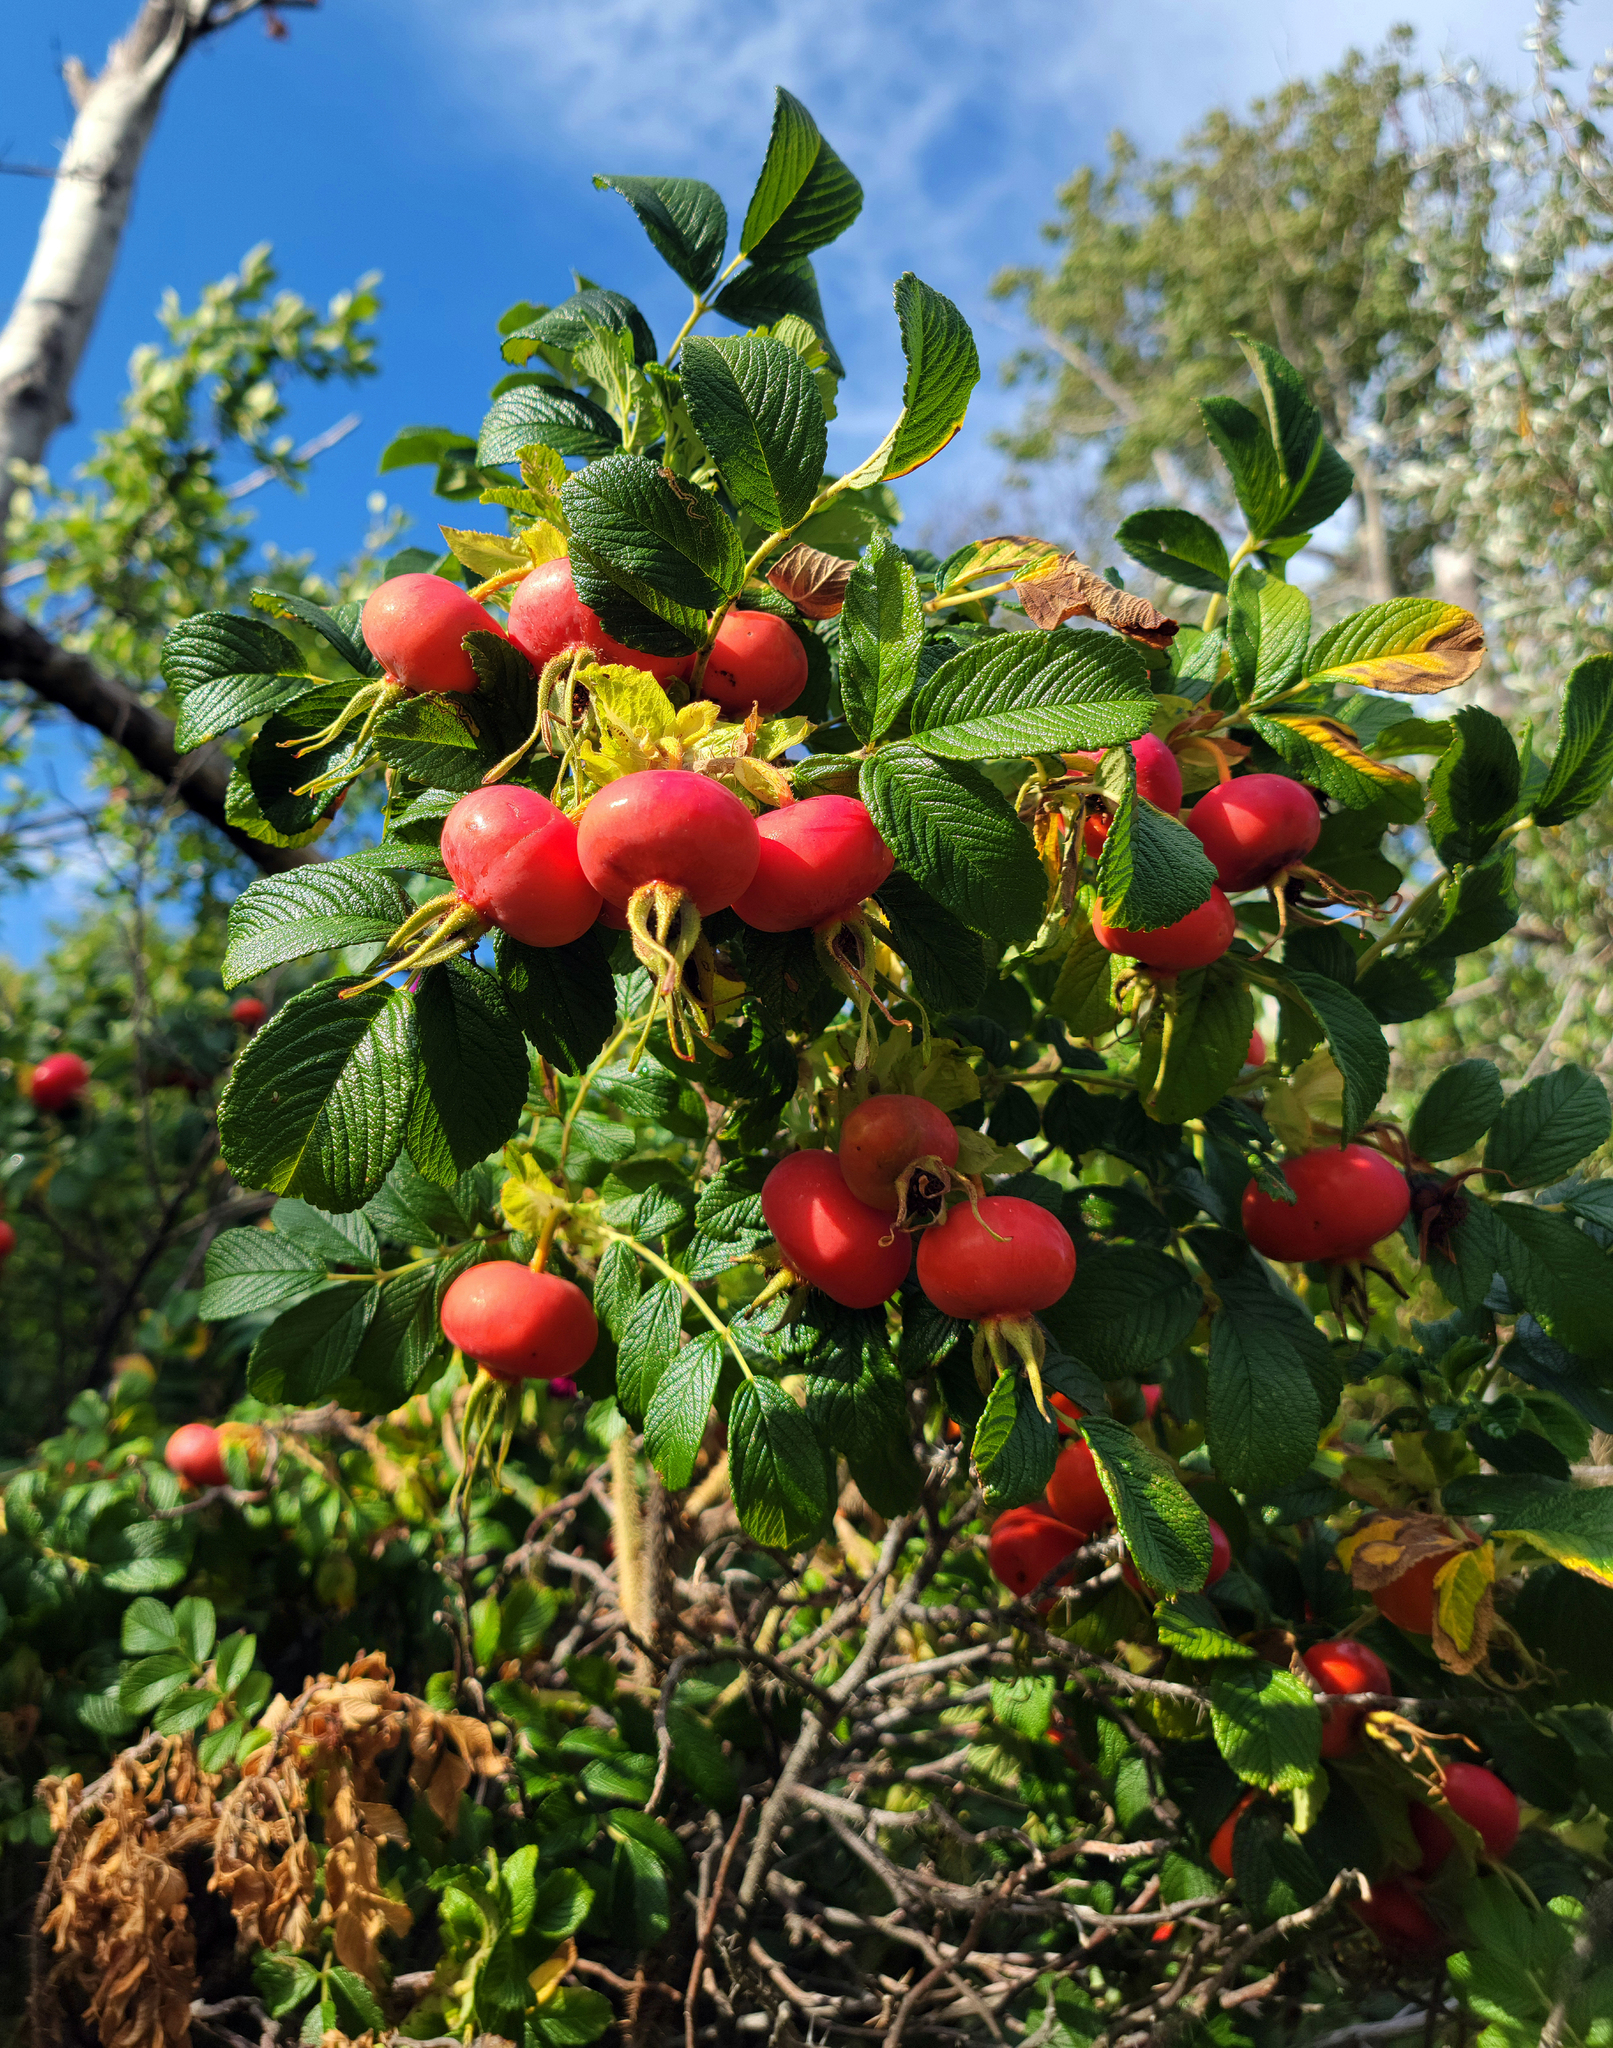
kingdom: Plantae
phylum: Tracheophyta
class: Magnoliopsida
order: Rosales
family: Rosaceae
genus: Rosa
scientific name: Rosa rugosa
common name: Japanese rose
